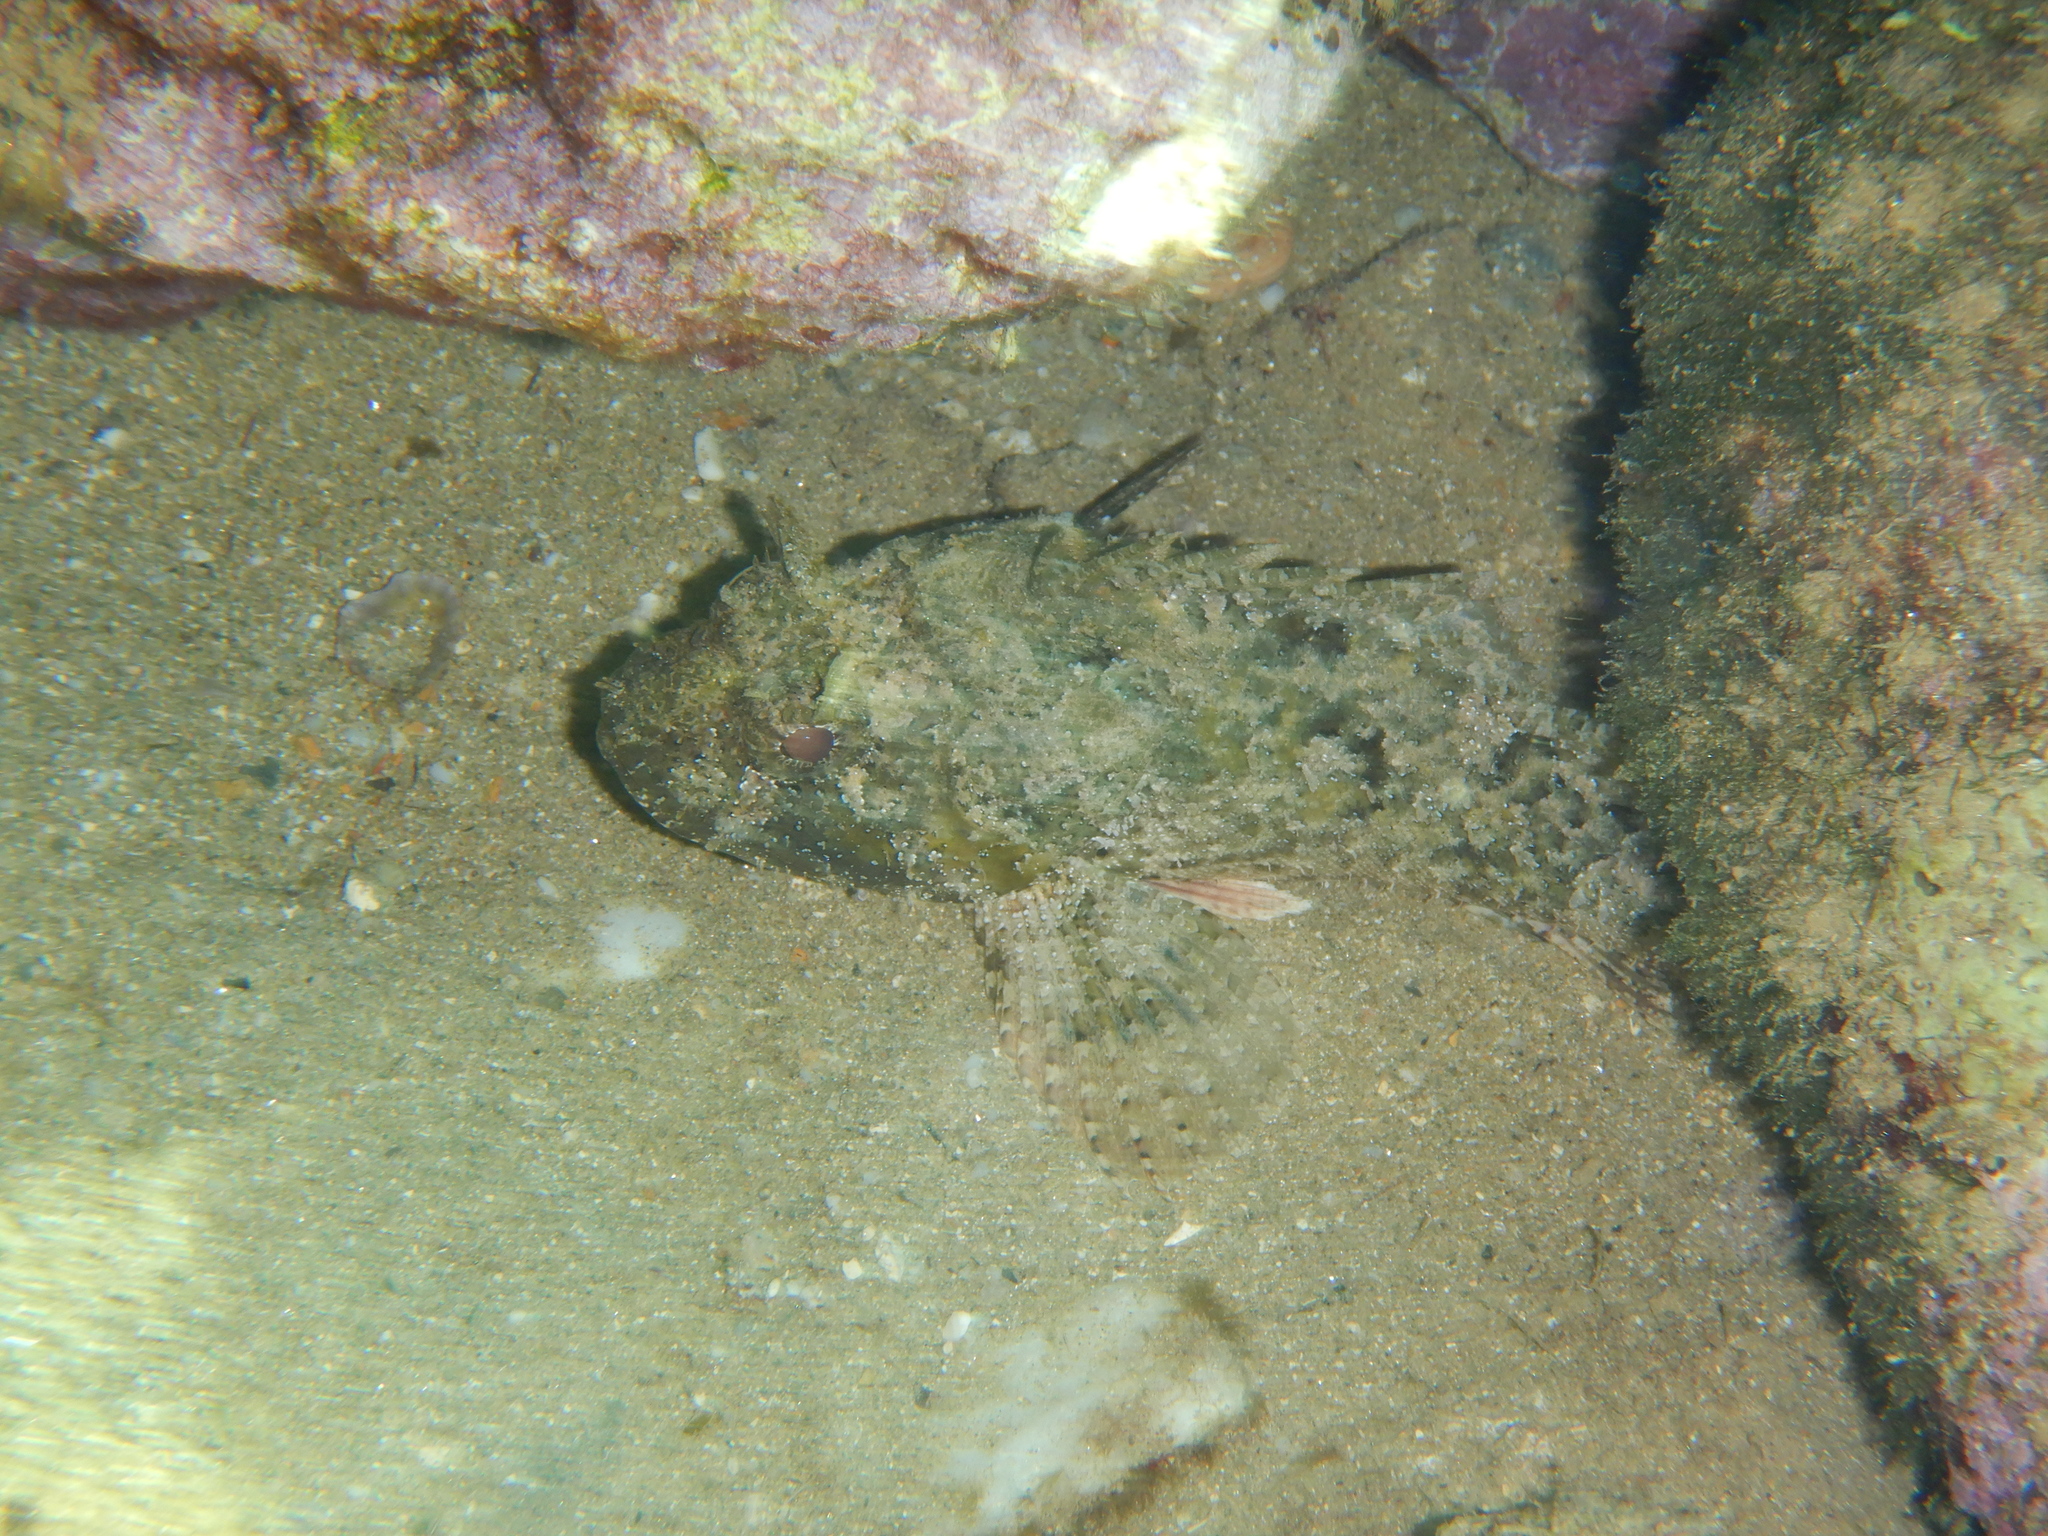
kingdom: Animalia
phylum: Chordata
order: Scorpaeniformes
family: Scorpaenidae
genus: Scorpaena
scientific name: Scorpaena porcus
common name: Black scorpionfish
